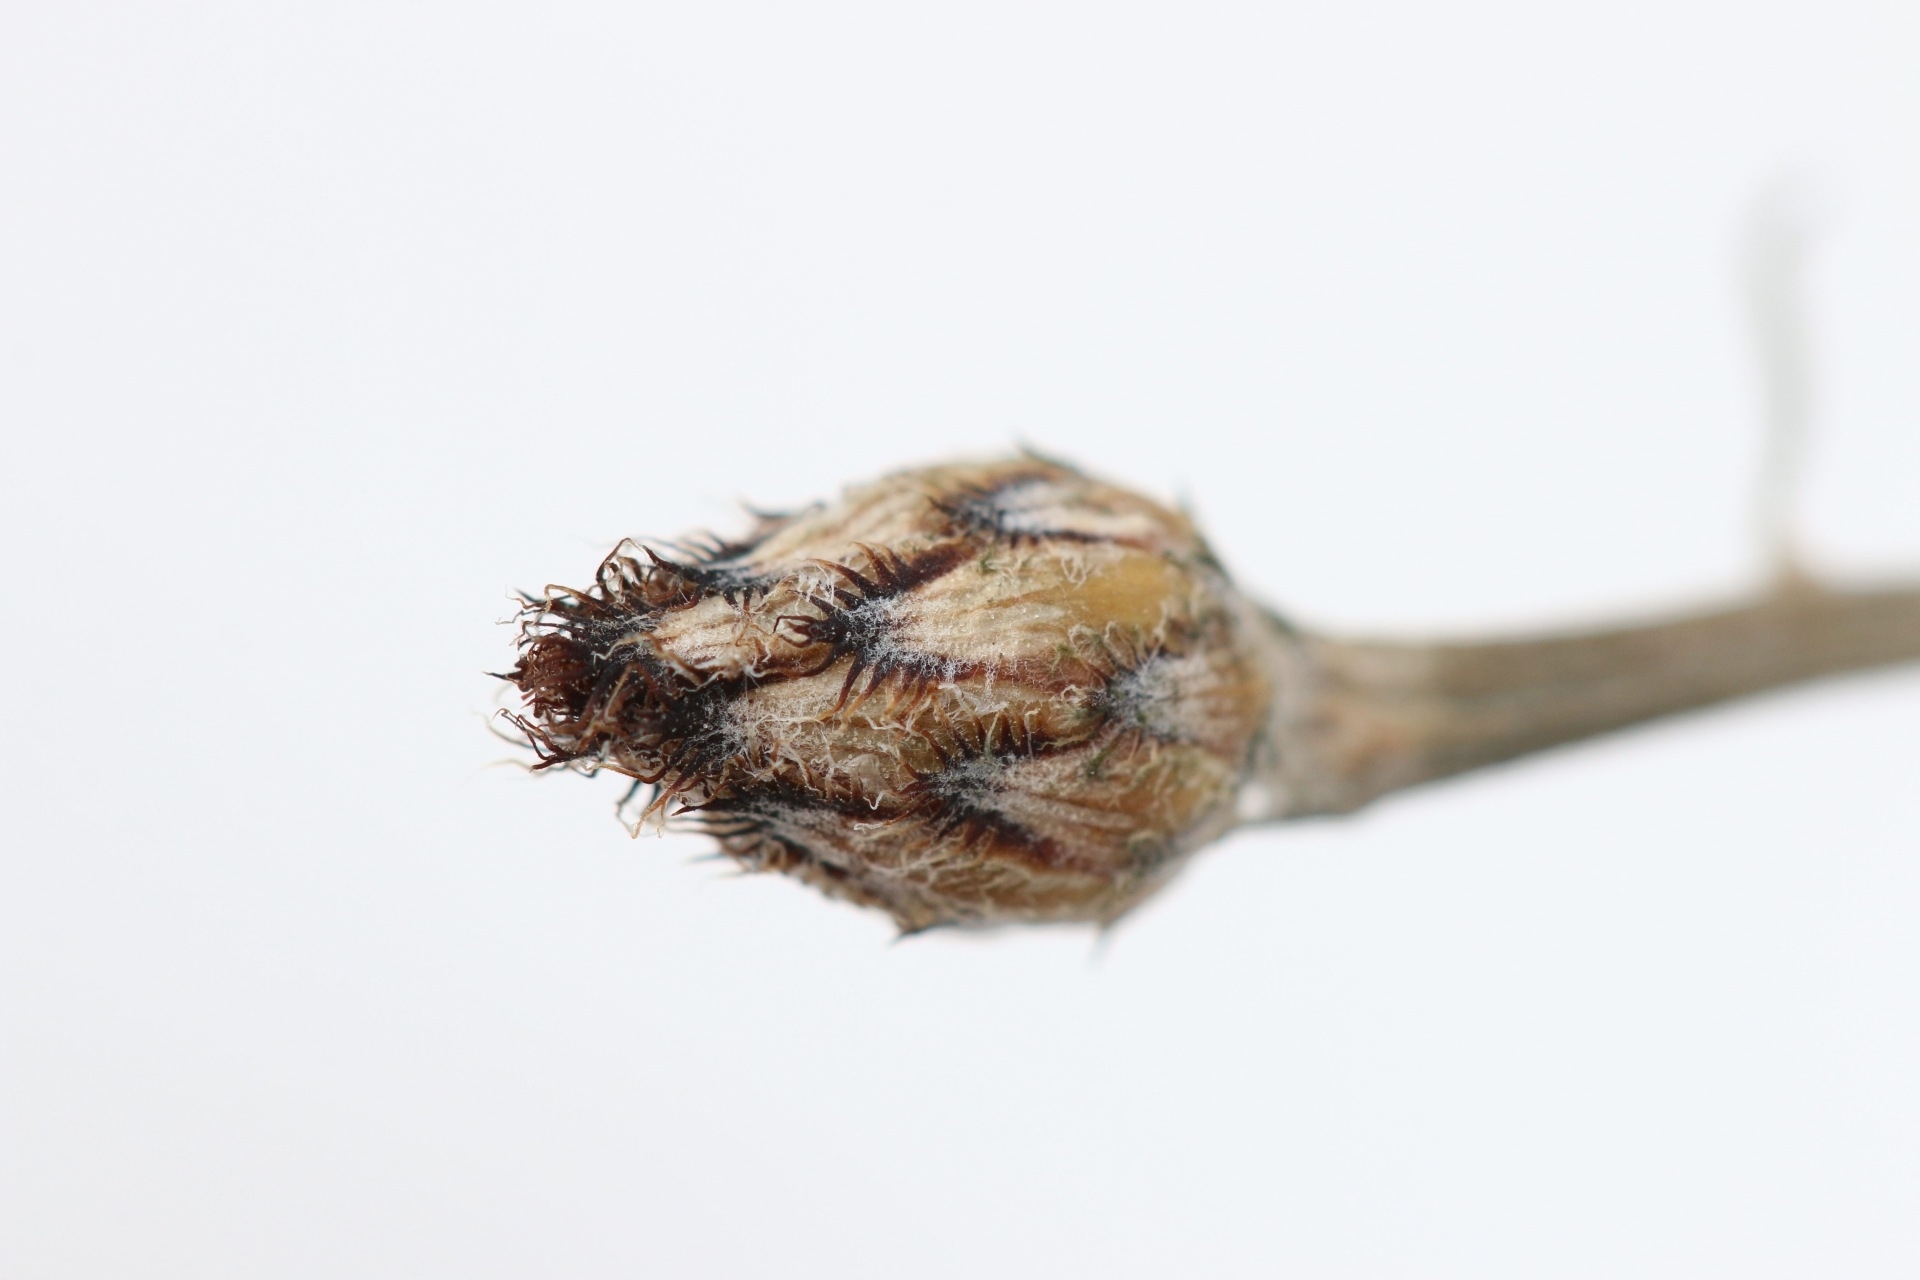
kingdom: Plantae
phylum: Tracheophyta
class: Magnoliopsida
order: Asterales
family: Asteraceae
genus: Centaurea
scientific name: Centaurea stoebe
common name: Spotted knapweed
